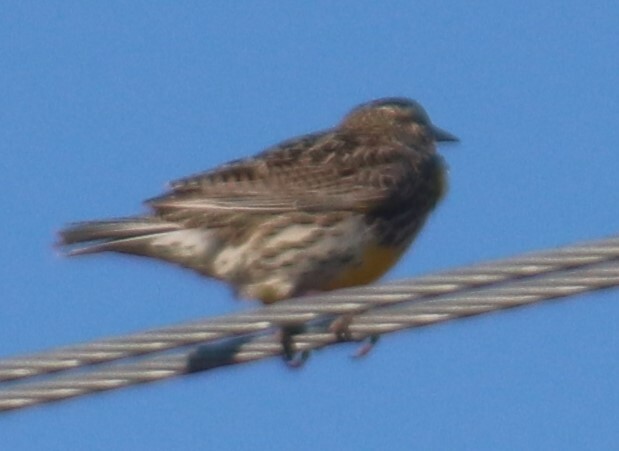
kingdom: Animalia
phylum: Chordata
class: Aves
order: Passeriformes
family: Icteridae
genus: Sturnella
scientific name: Sturnella neglecta
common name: Western meadowlark
